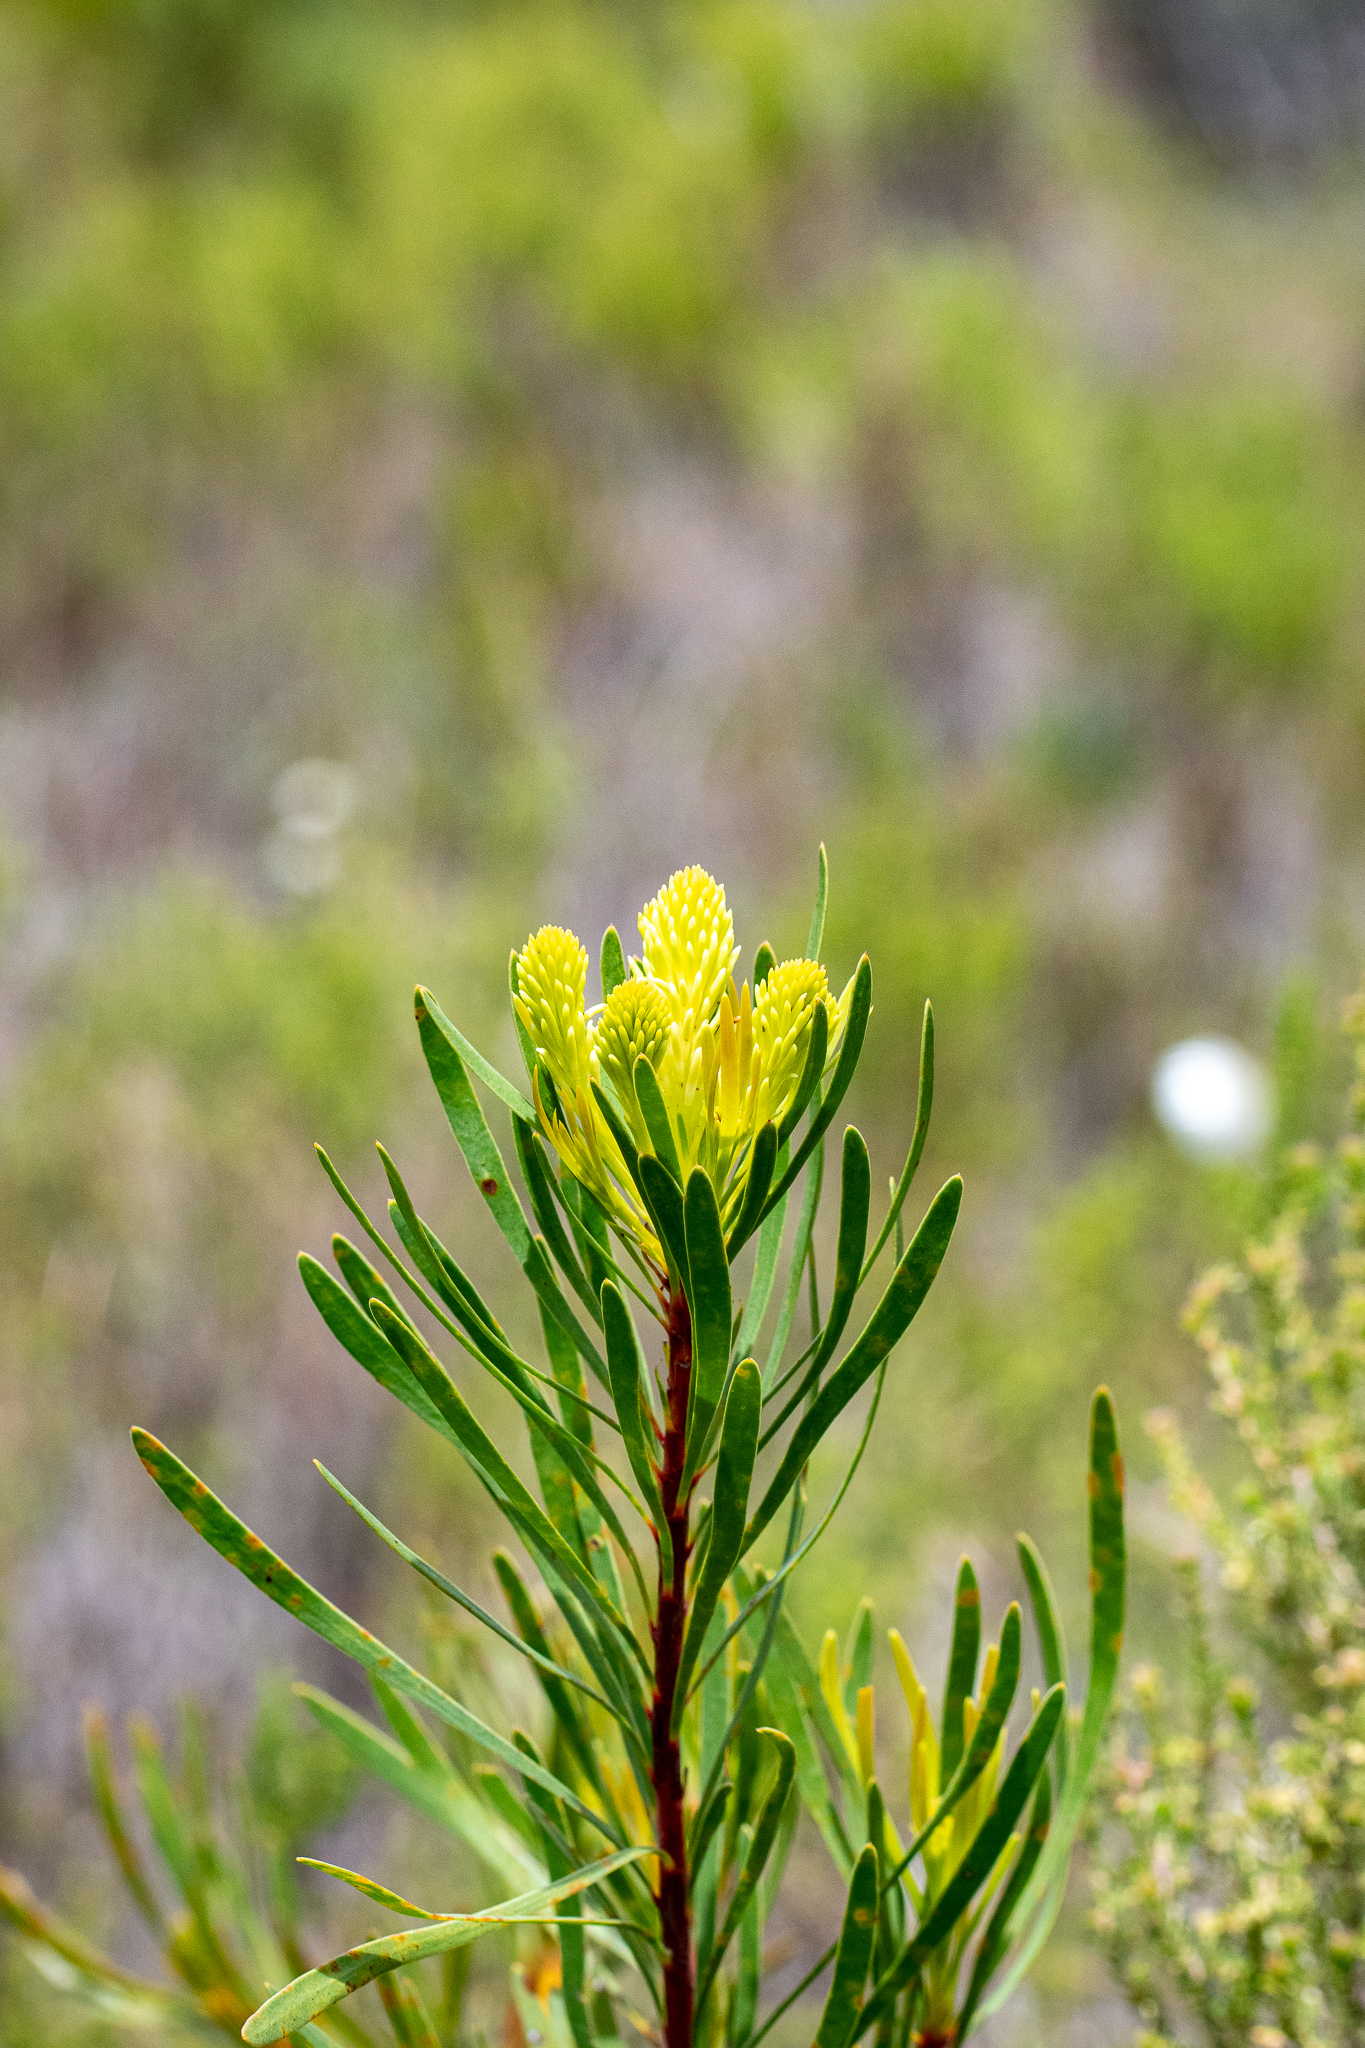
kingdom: Plantae
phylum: Tracheophyta
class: Magnoliopsida
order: Proteales
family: Proteaceae
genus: Aulax
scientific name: Aulax
